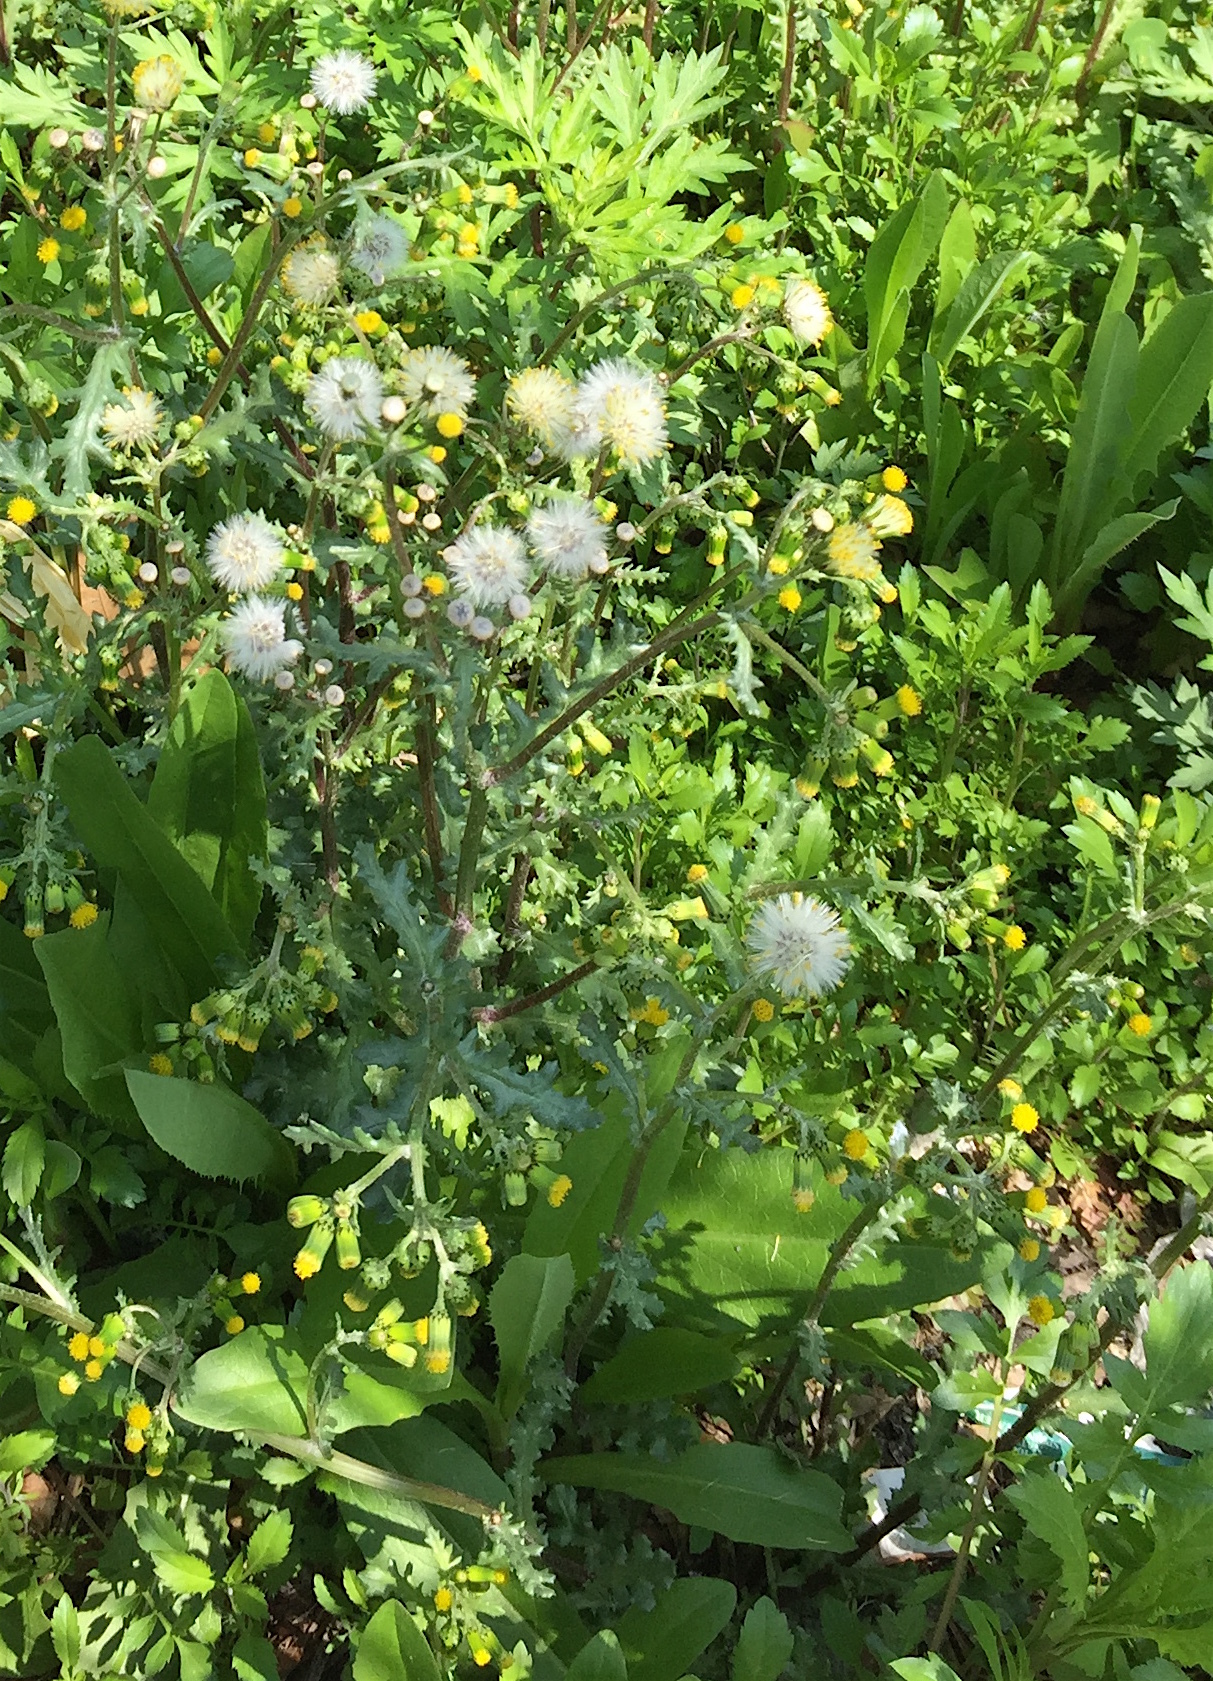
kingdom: Plantae
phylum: Tracheophyta
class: Magnoliopsida
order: Asterales
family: Asteraceae
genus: Senecio
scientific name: Senecio vulgaris
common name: Old-man-in-the-spring
